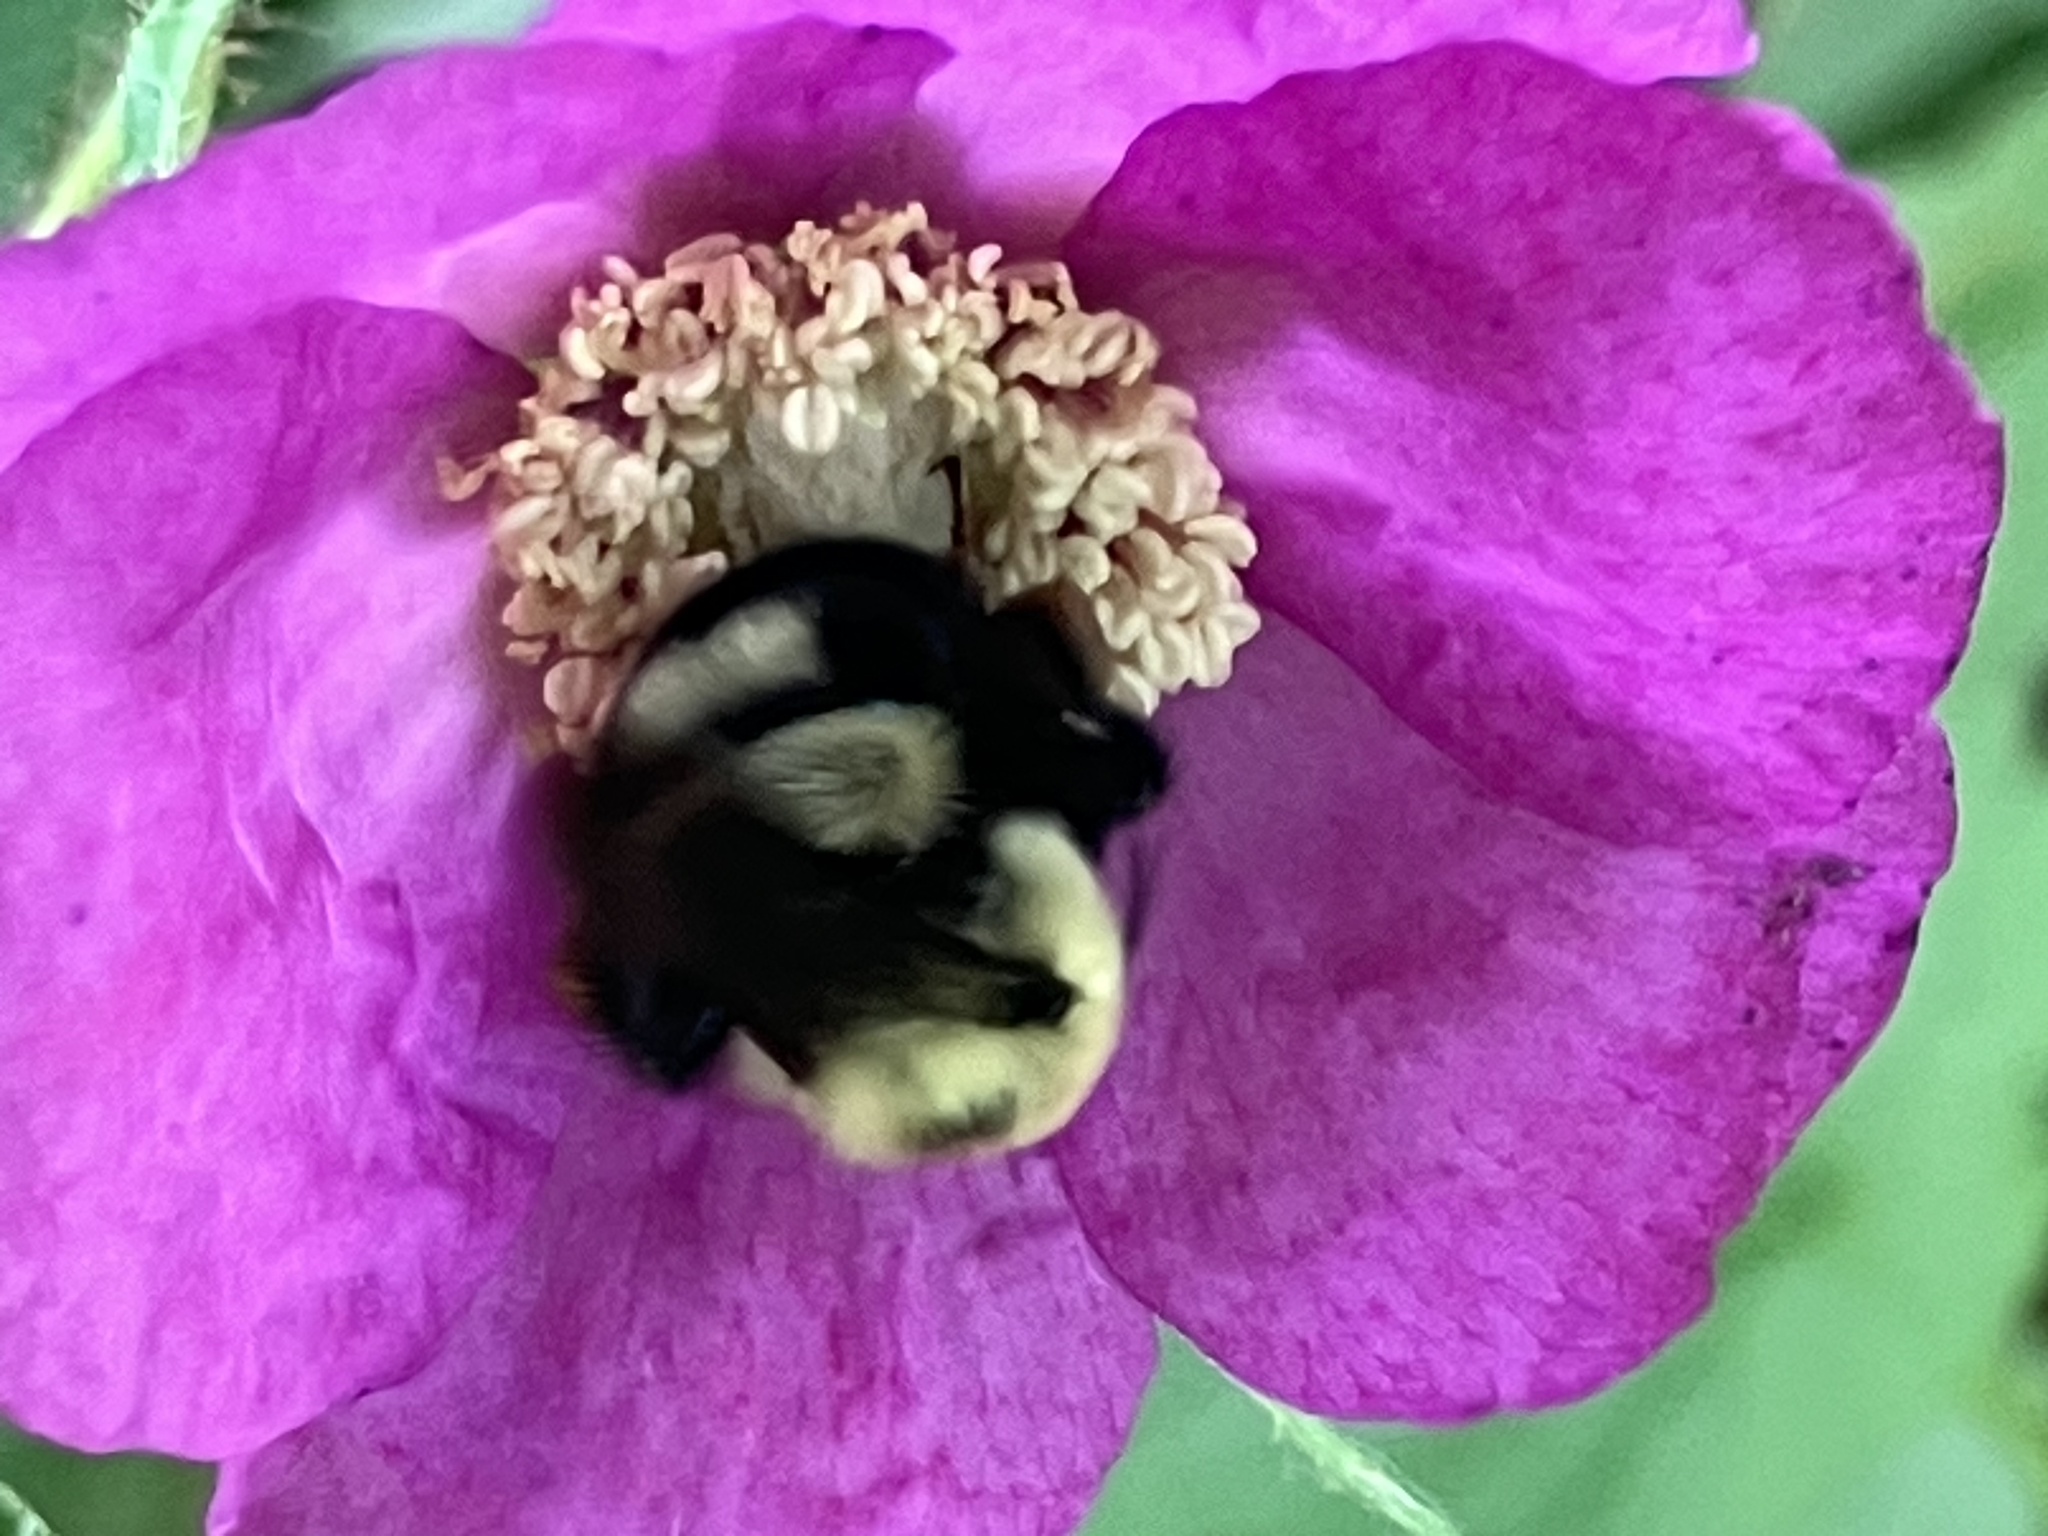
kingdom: Animalia
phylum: Arthropoda
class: Insecta
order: Hymenoptera
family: Apidae
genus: Bombus
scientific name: Bombus bimaculatus
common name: Two-spotted bumble bee
